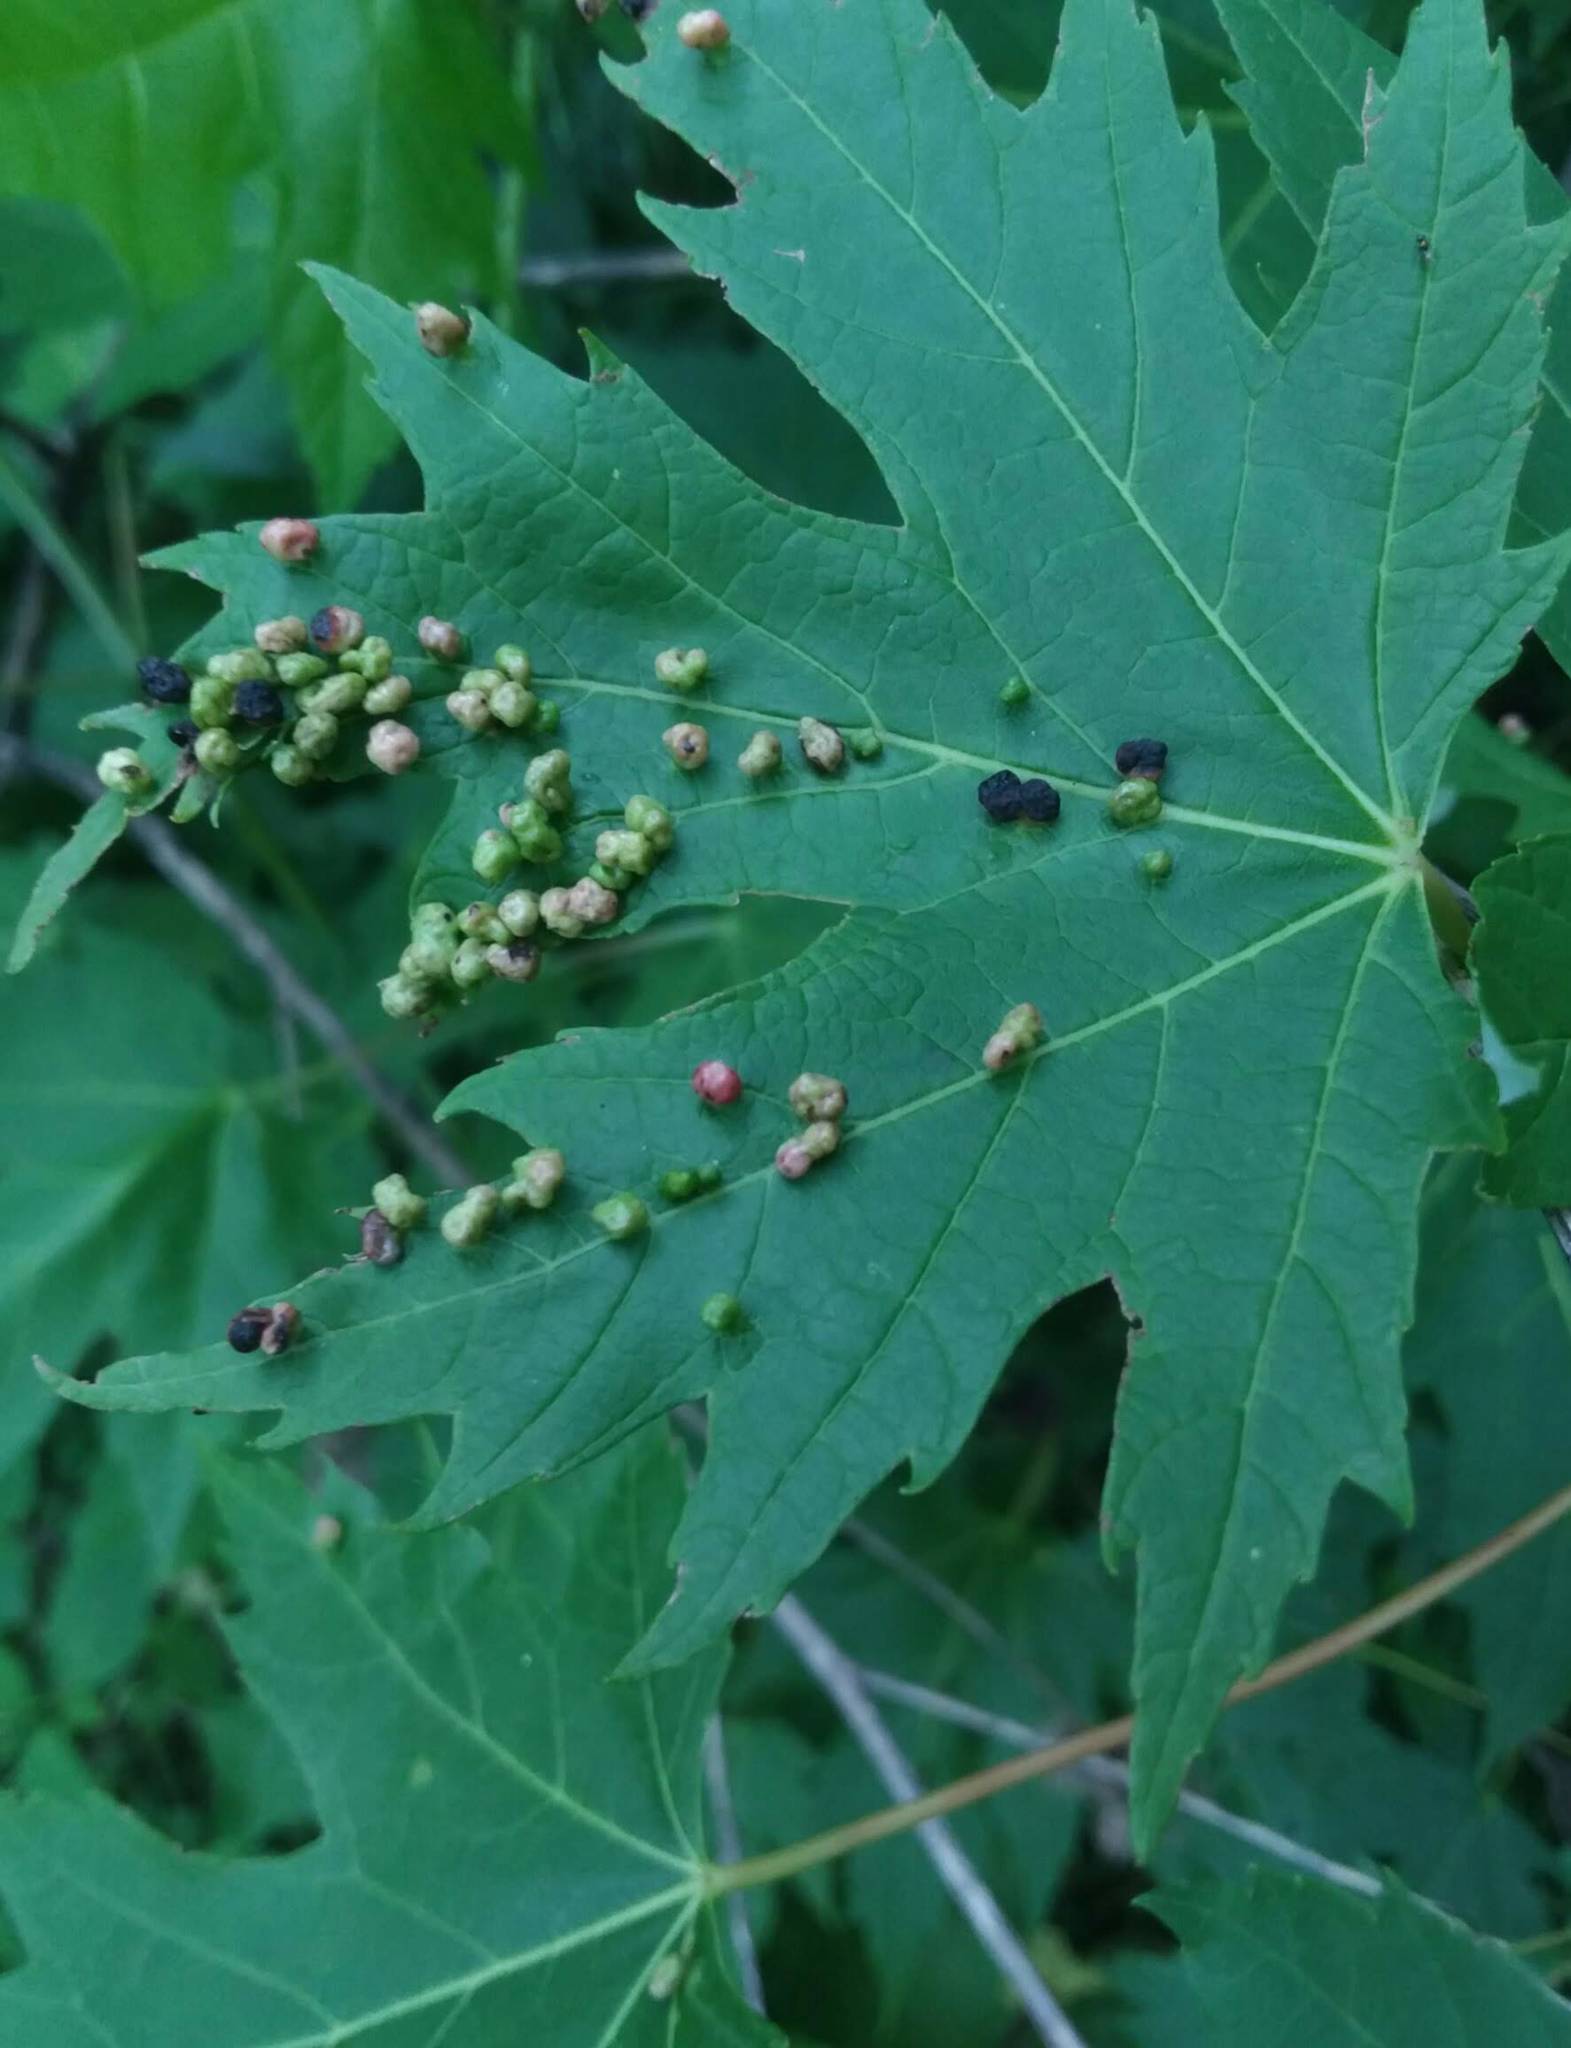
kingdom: Animalia
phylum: Arthropoda
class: Arachnida
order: Trombidiformes
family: Eriophyidae
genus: Vasates
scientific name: Vasates quadripedes
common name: Maple bladder gall mite
